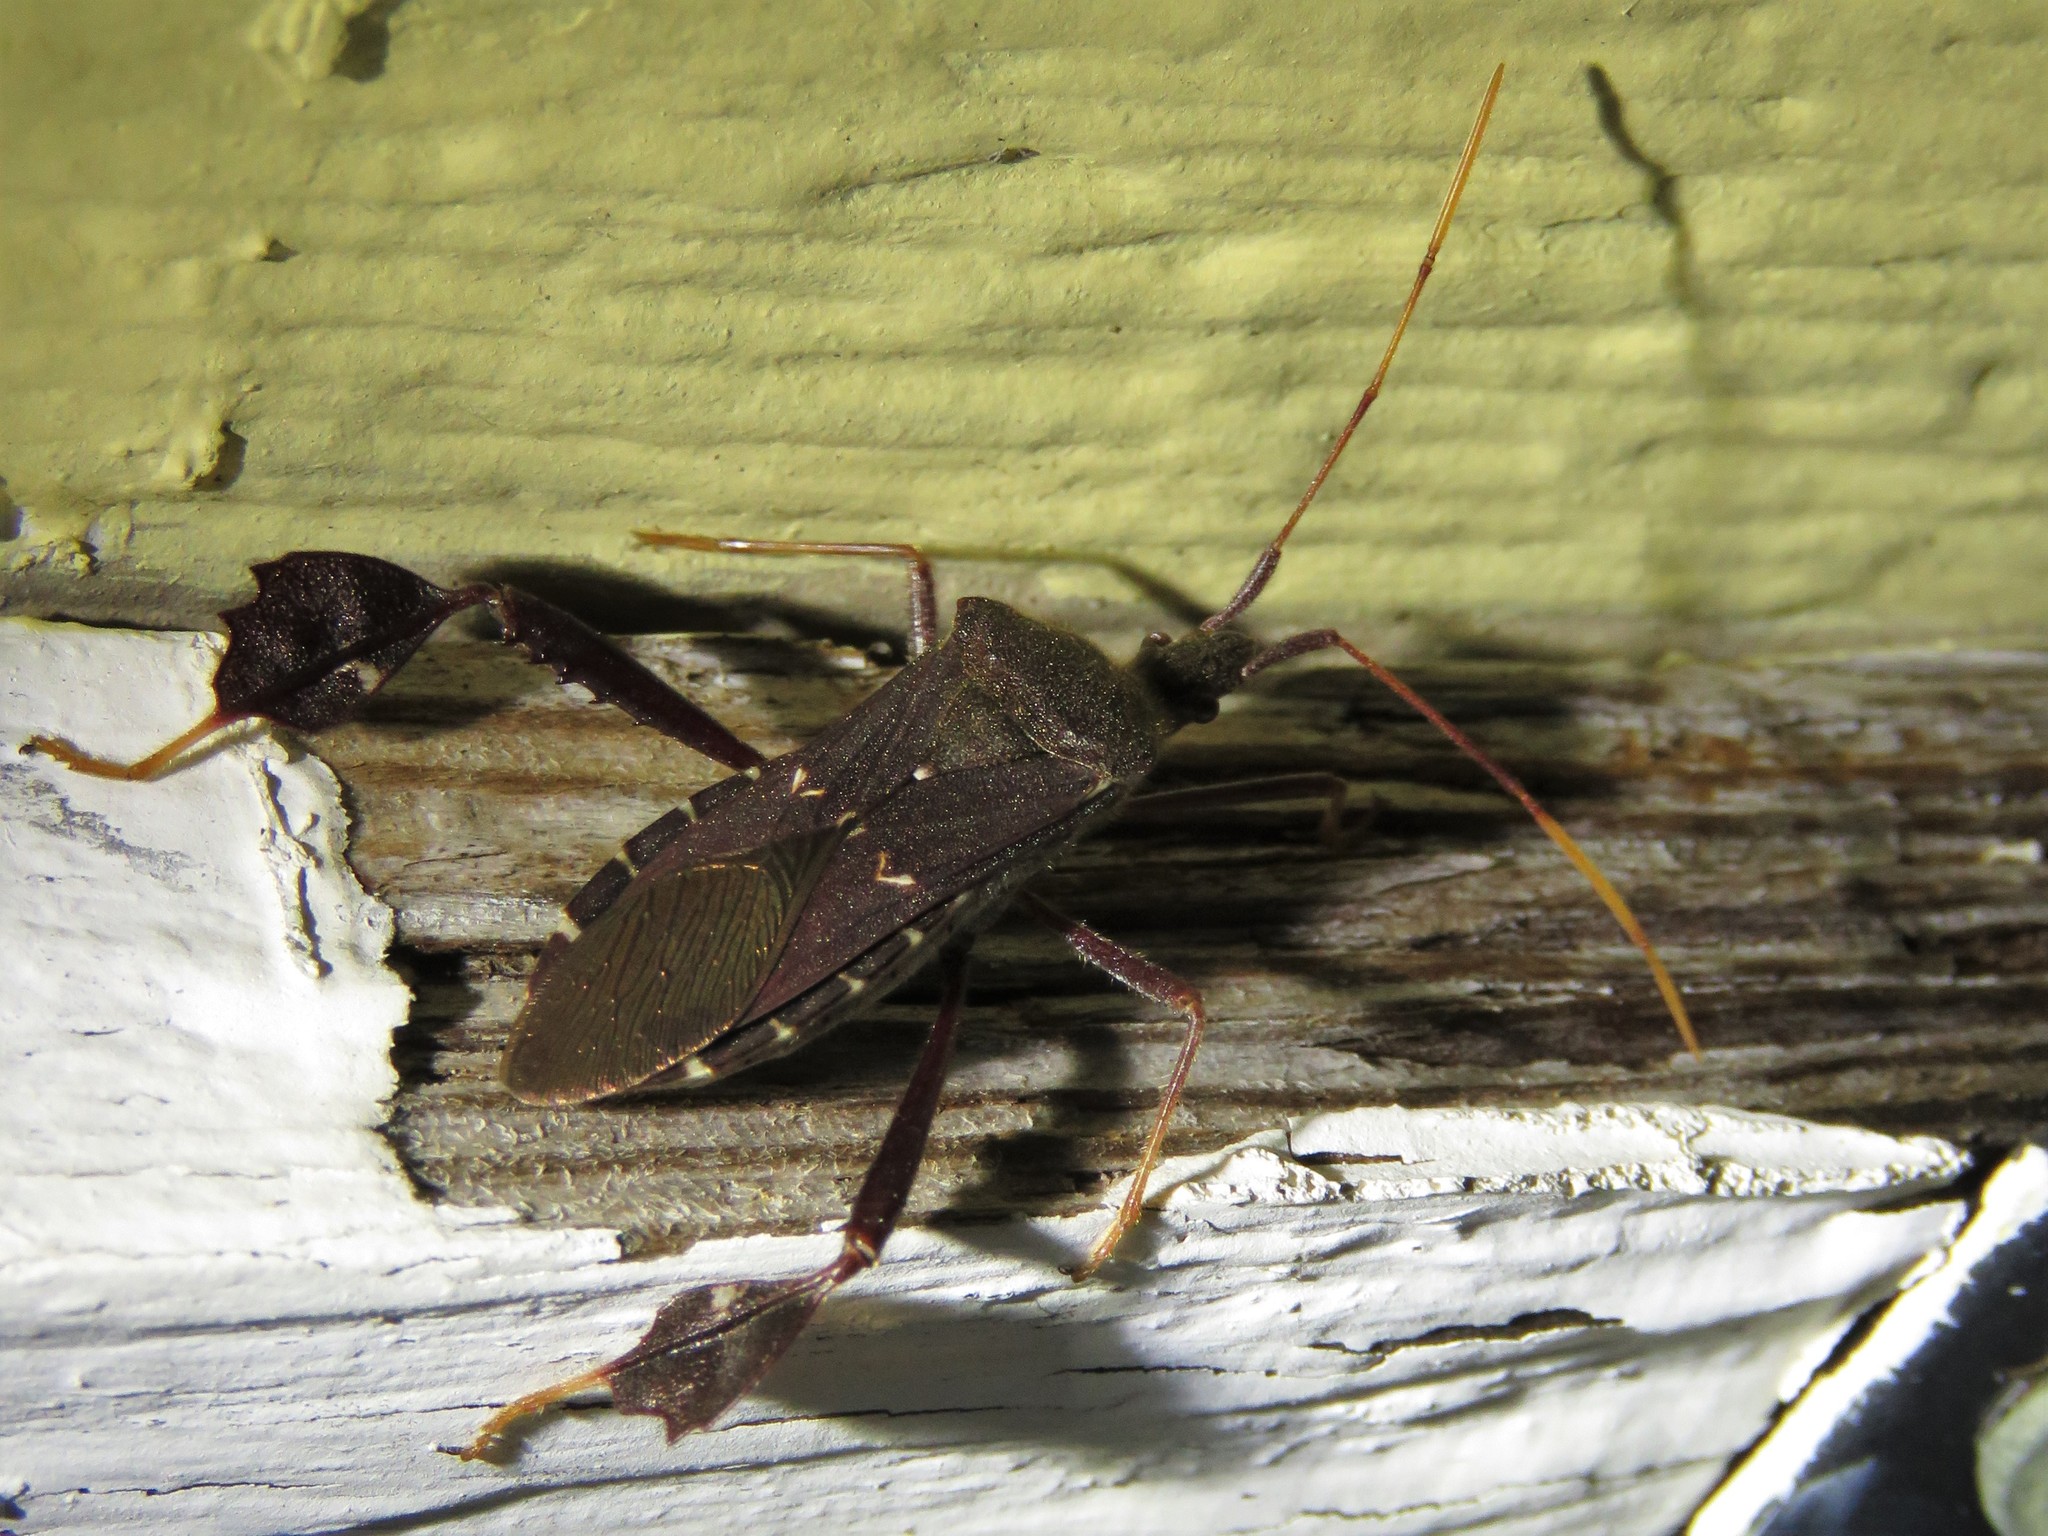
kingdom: Animalia
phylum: Arthropoda
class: Insecta
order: Hemiptera
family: Coreidae
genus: Leptoglossus
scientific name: Leptoglossus oppositus
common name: Northern leaf-footed bug
